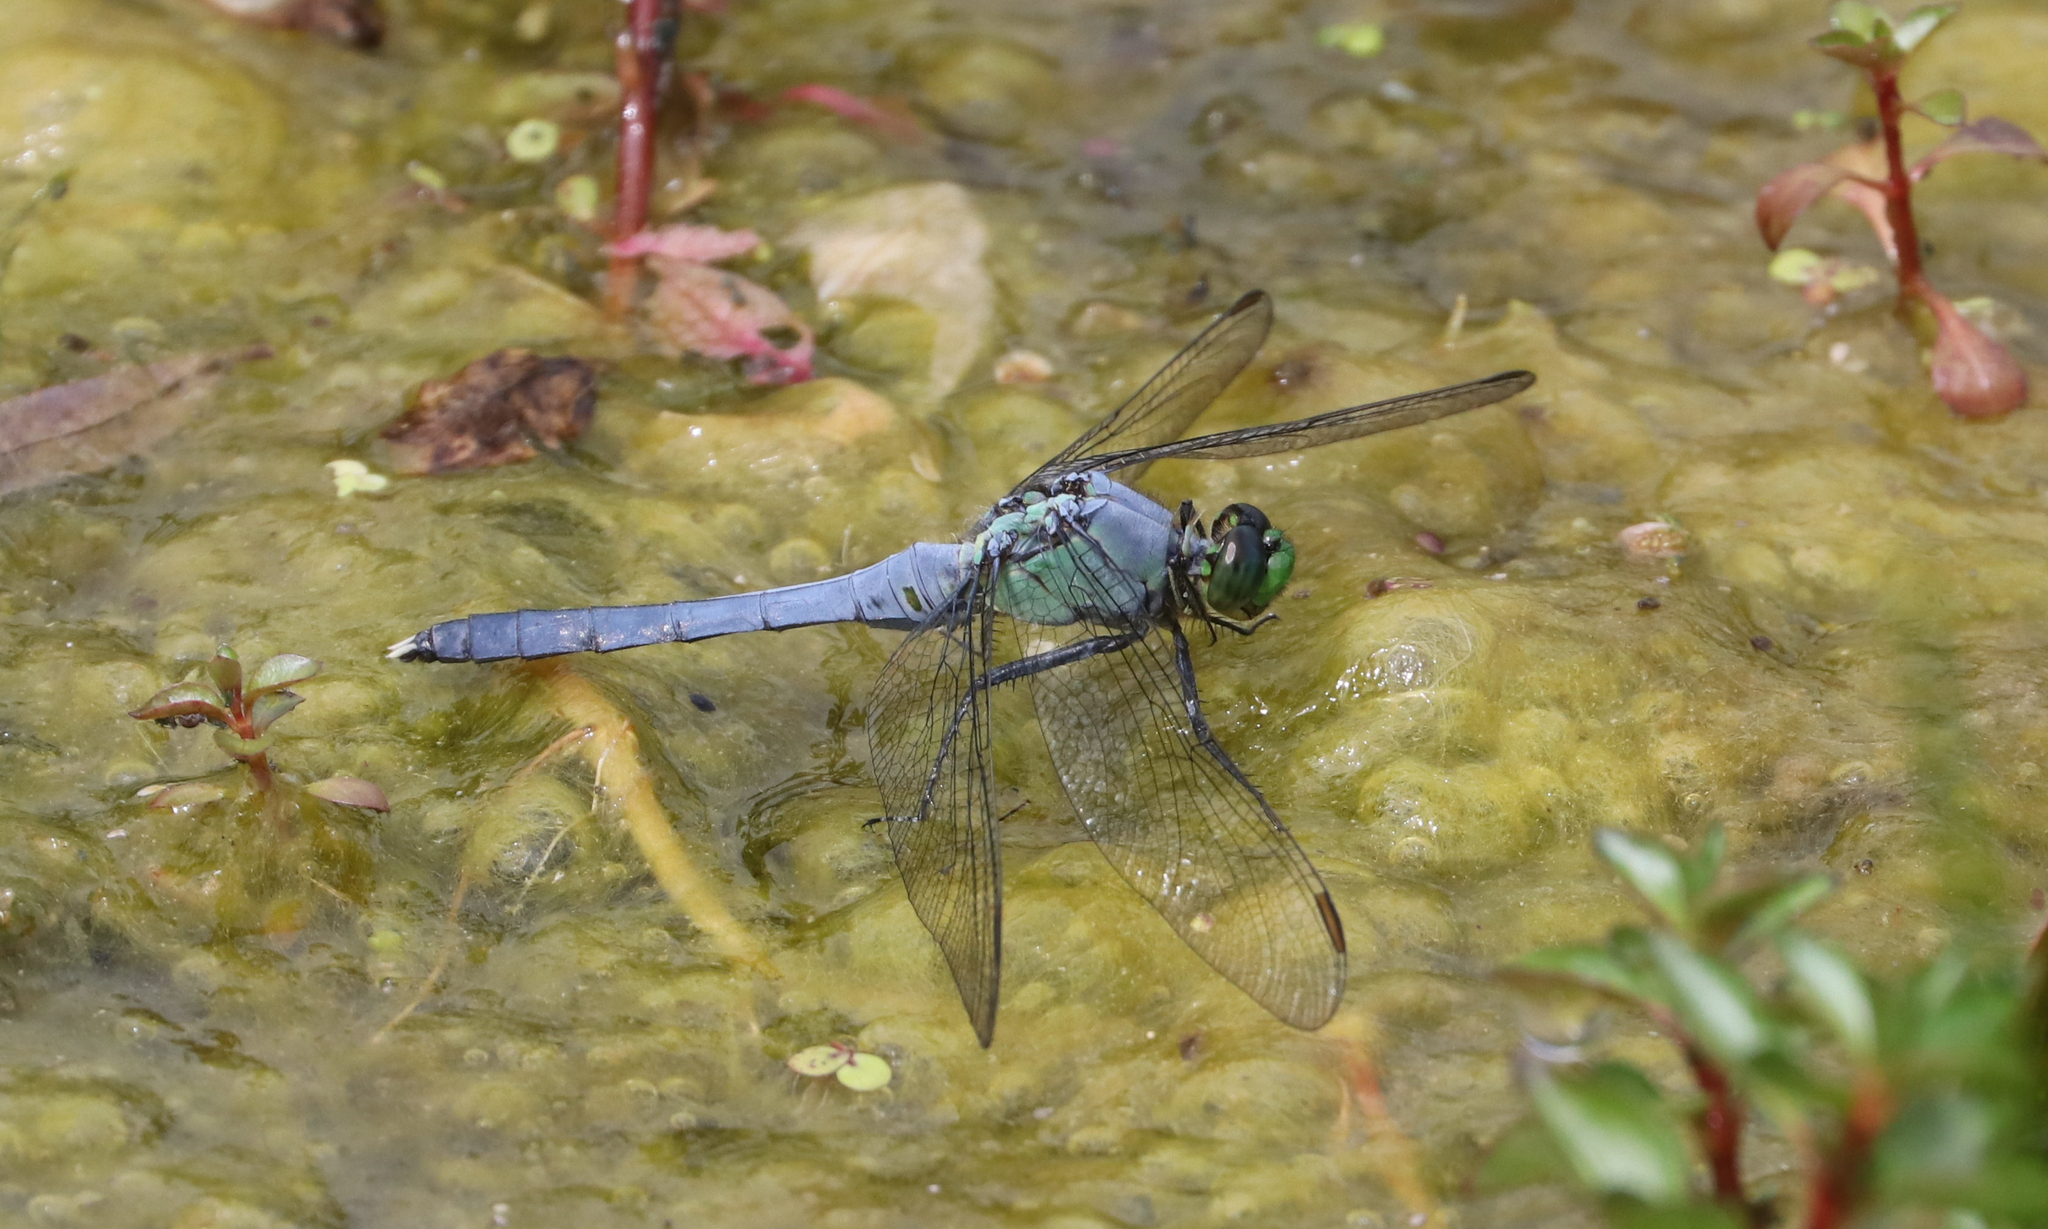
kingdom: Animalia
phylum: Arthropoda
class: Insecta
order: Odonata
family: Libellulidae
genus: Erythemis
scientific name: Erythemis simplicicollis
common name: Eastern pondhawk
